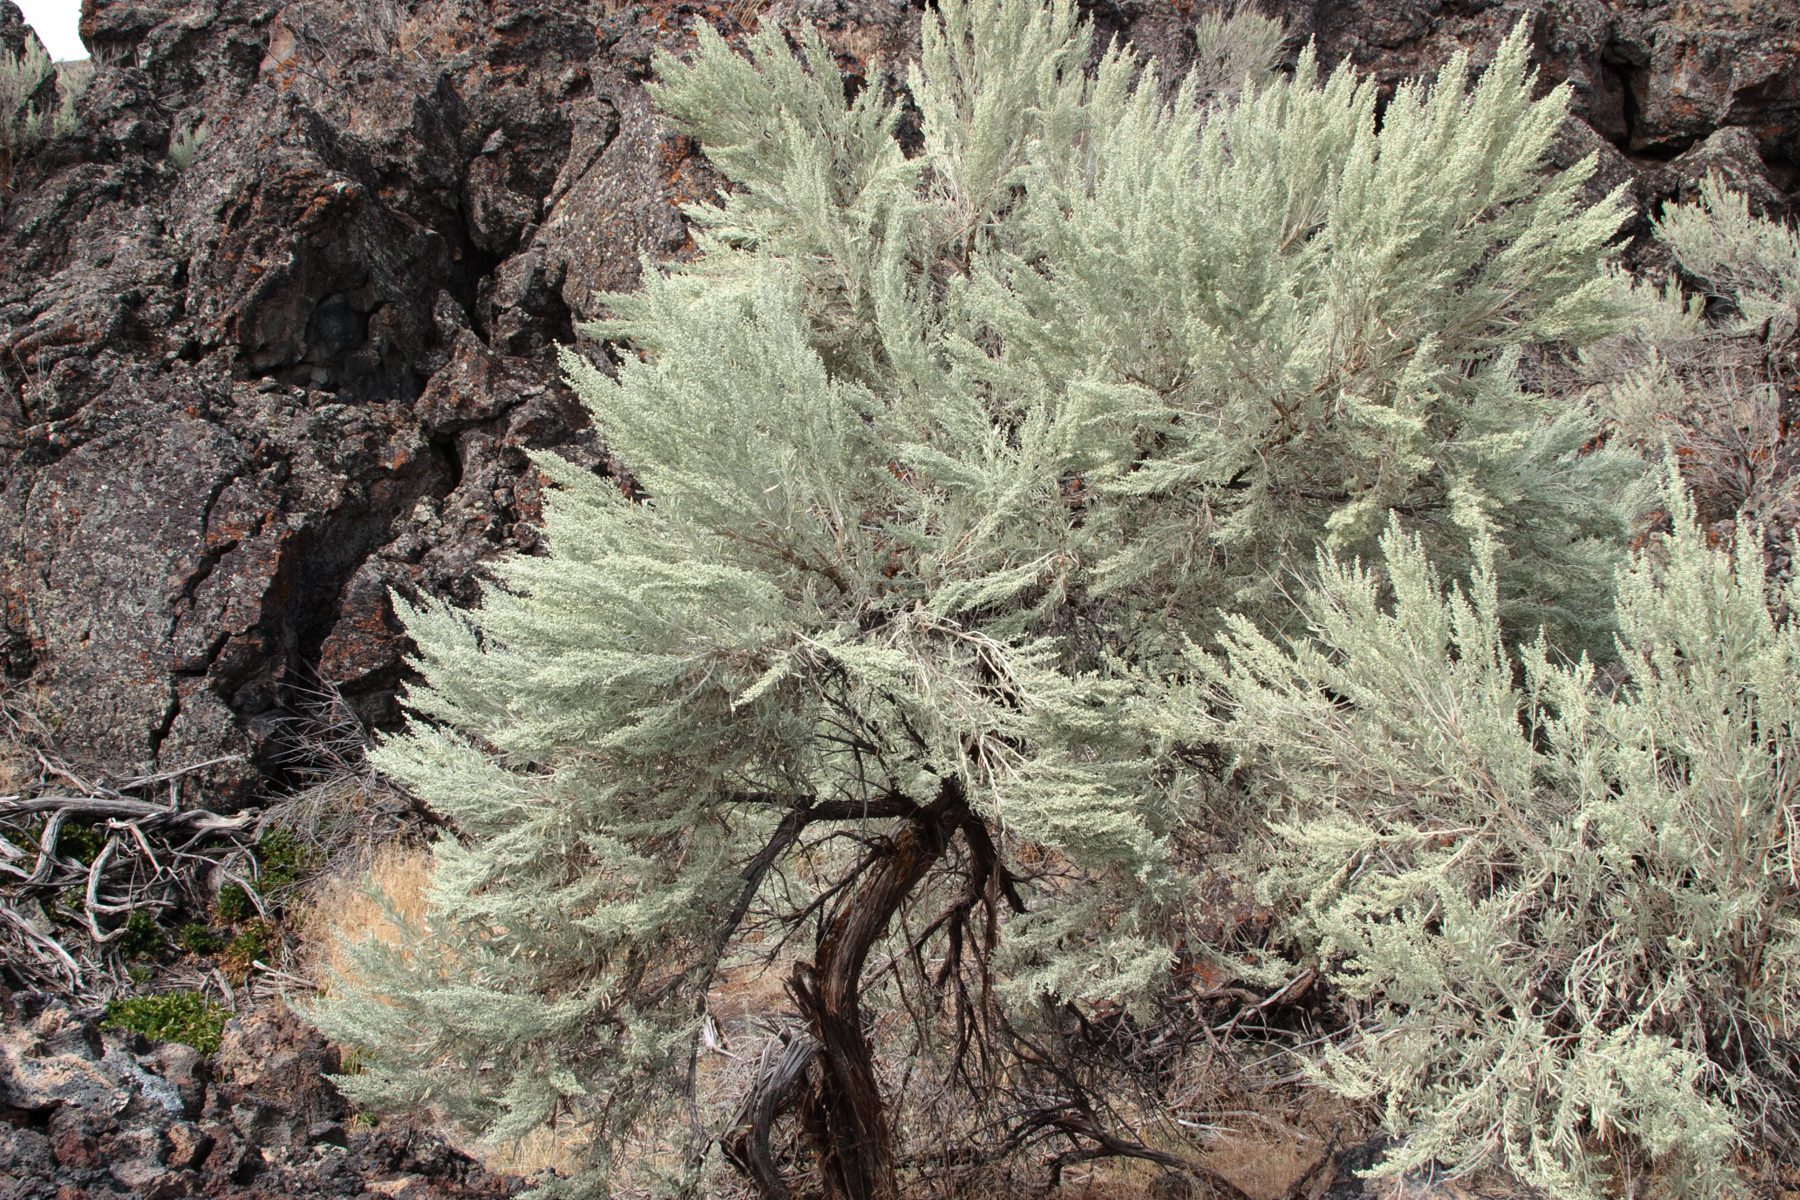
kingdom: Plantae
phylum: Tracheophyta
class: Magnoliopsida
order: Asterales
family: Asteraceae
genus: Artemisia
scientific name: Artemisia tridentata
